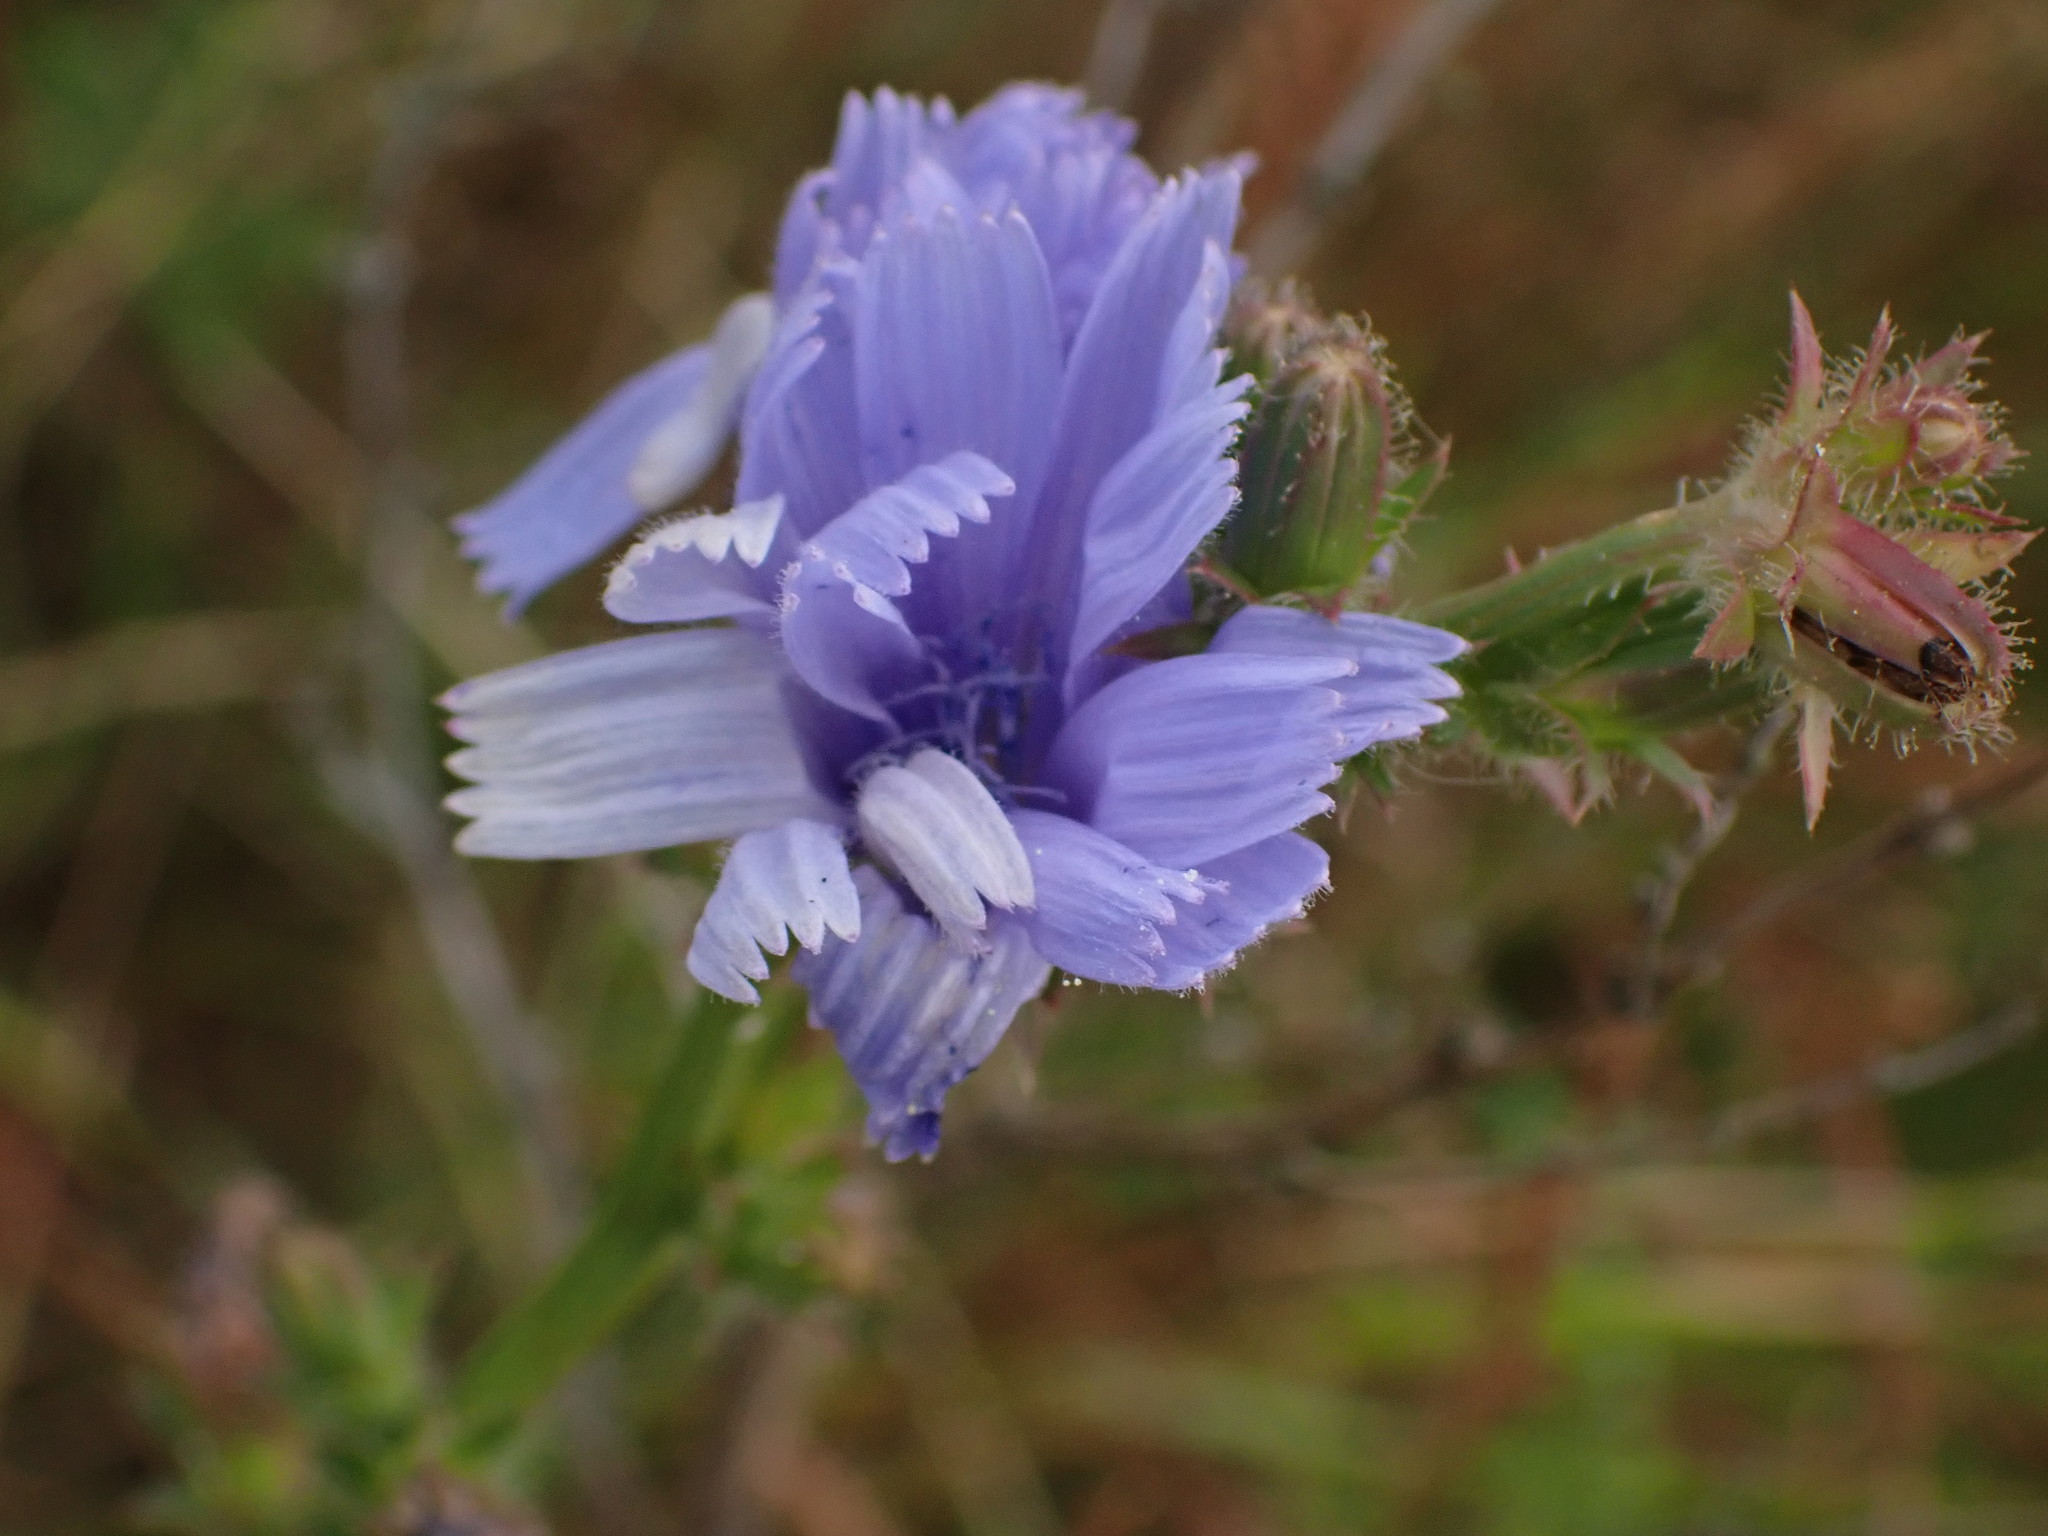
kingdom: Plantae
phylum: Tracheophyta
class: Magnoliopsida
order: Asterales
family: Asteraceae
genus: Cichorium
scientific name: Cichorium intybus
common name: Chicory
